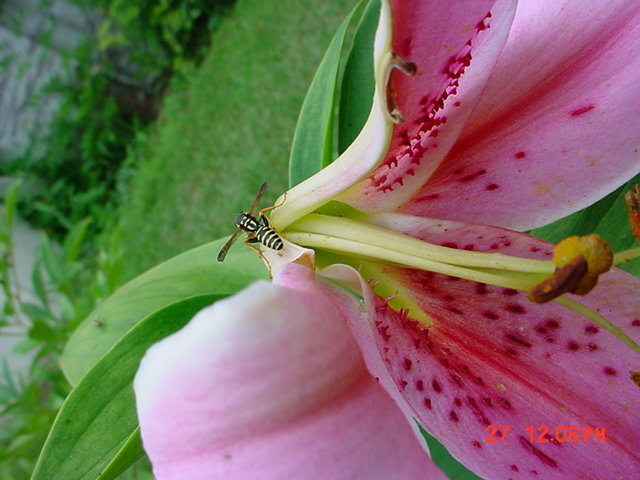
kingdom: Animalia
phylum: Arthropoda
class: Insecta
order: Hymenoptera
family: Eumenidae
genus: Polistes
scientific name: Polistes dominula
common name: Paper wasp
